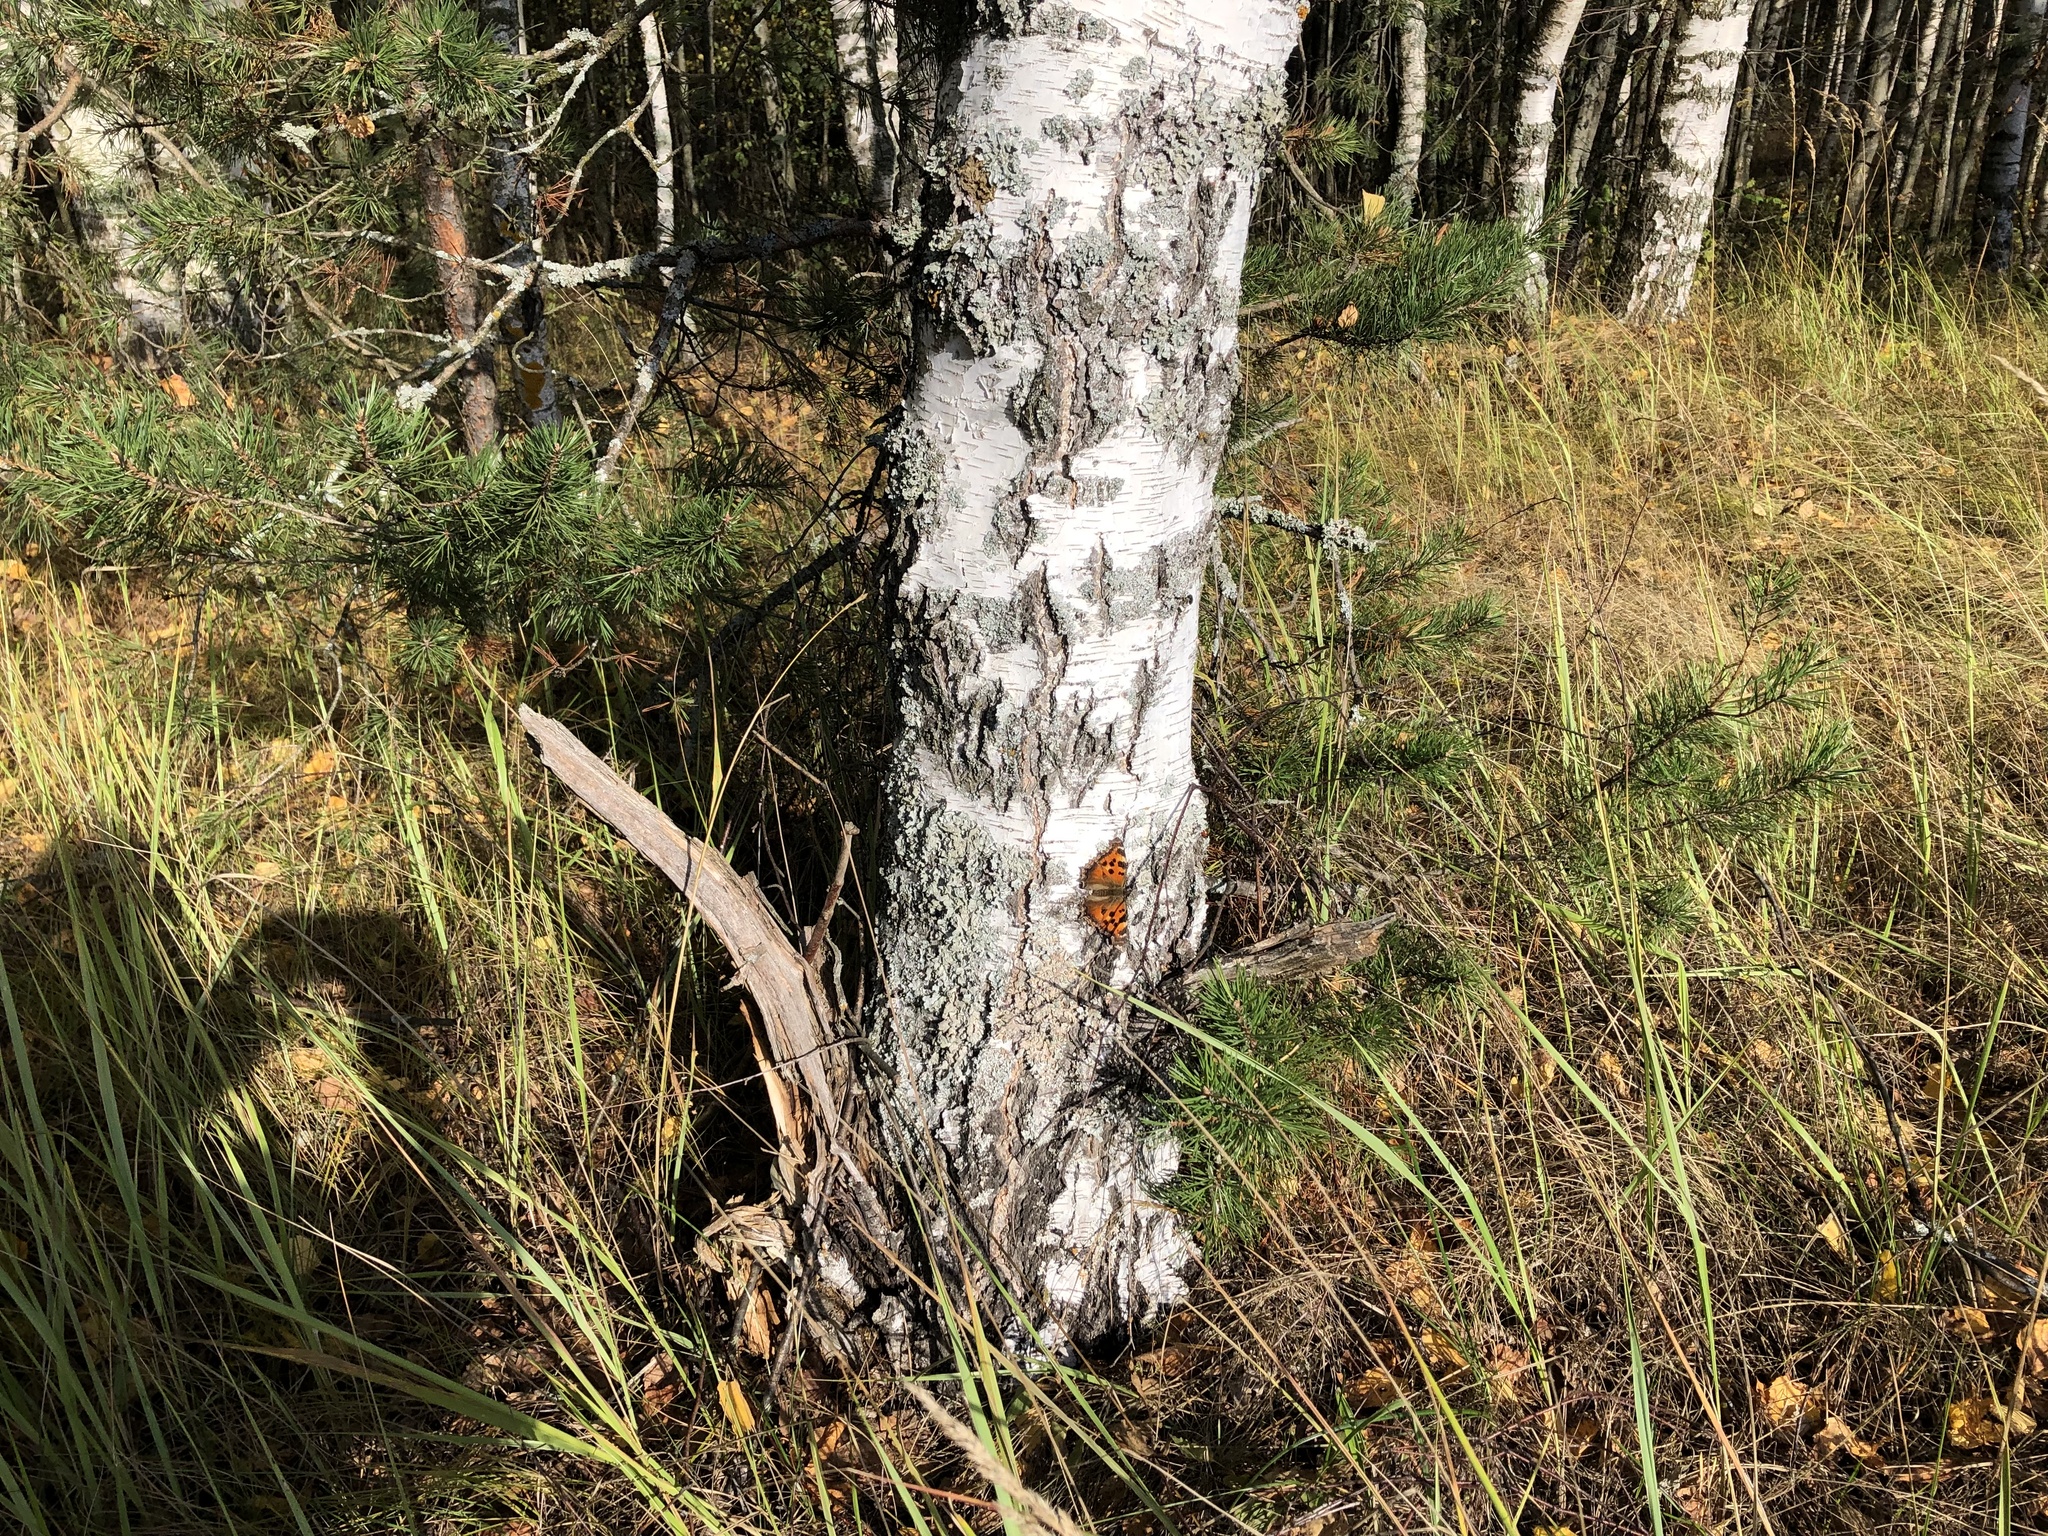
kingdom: Animalia
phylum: Arthropoda
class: Insecta
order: Lepidoptera
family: Nymphalidae
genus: Nymphalis
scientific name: Nymphalis xanthomelas
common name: Scarce tortoiseshell
